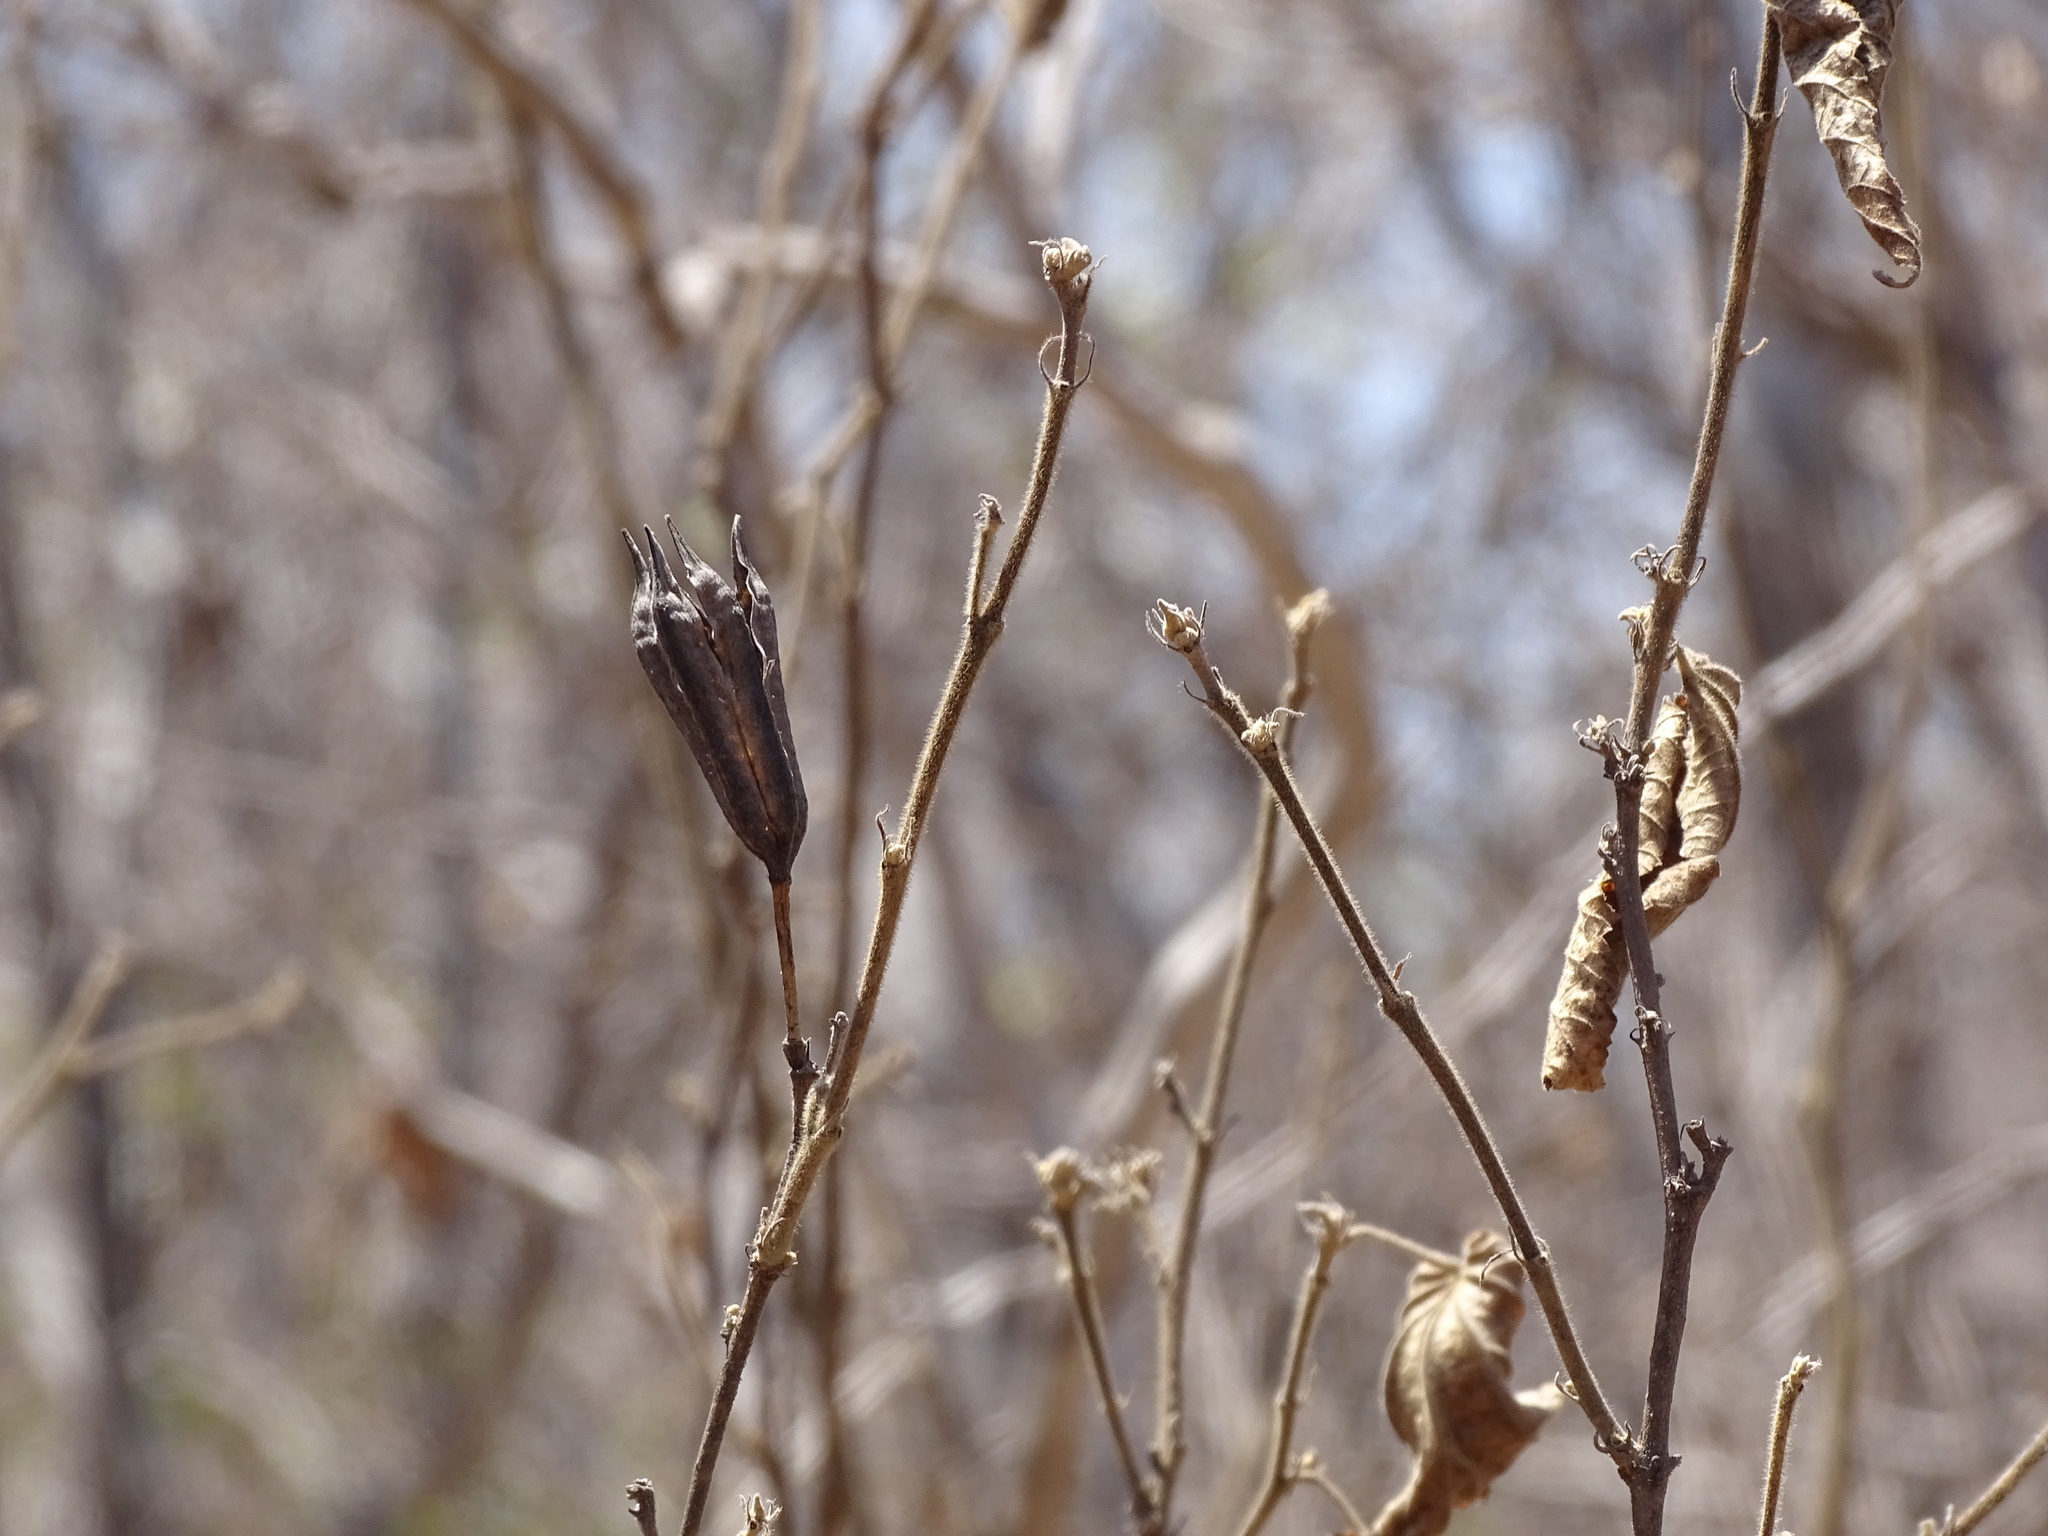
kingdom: Plantae
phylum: Tracheophyta
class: Magnoliopsida
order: Malvales
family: Malvaceae
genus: Helicteres
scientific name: Helicteres vegae
